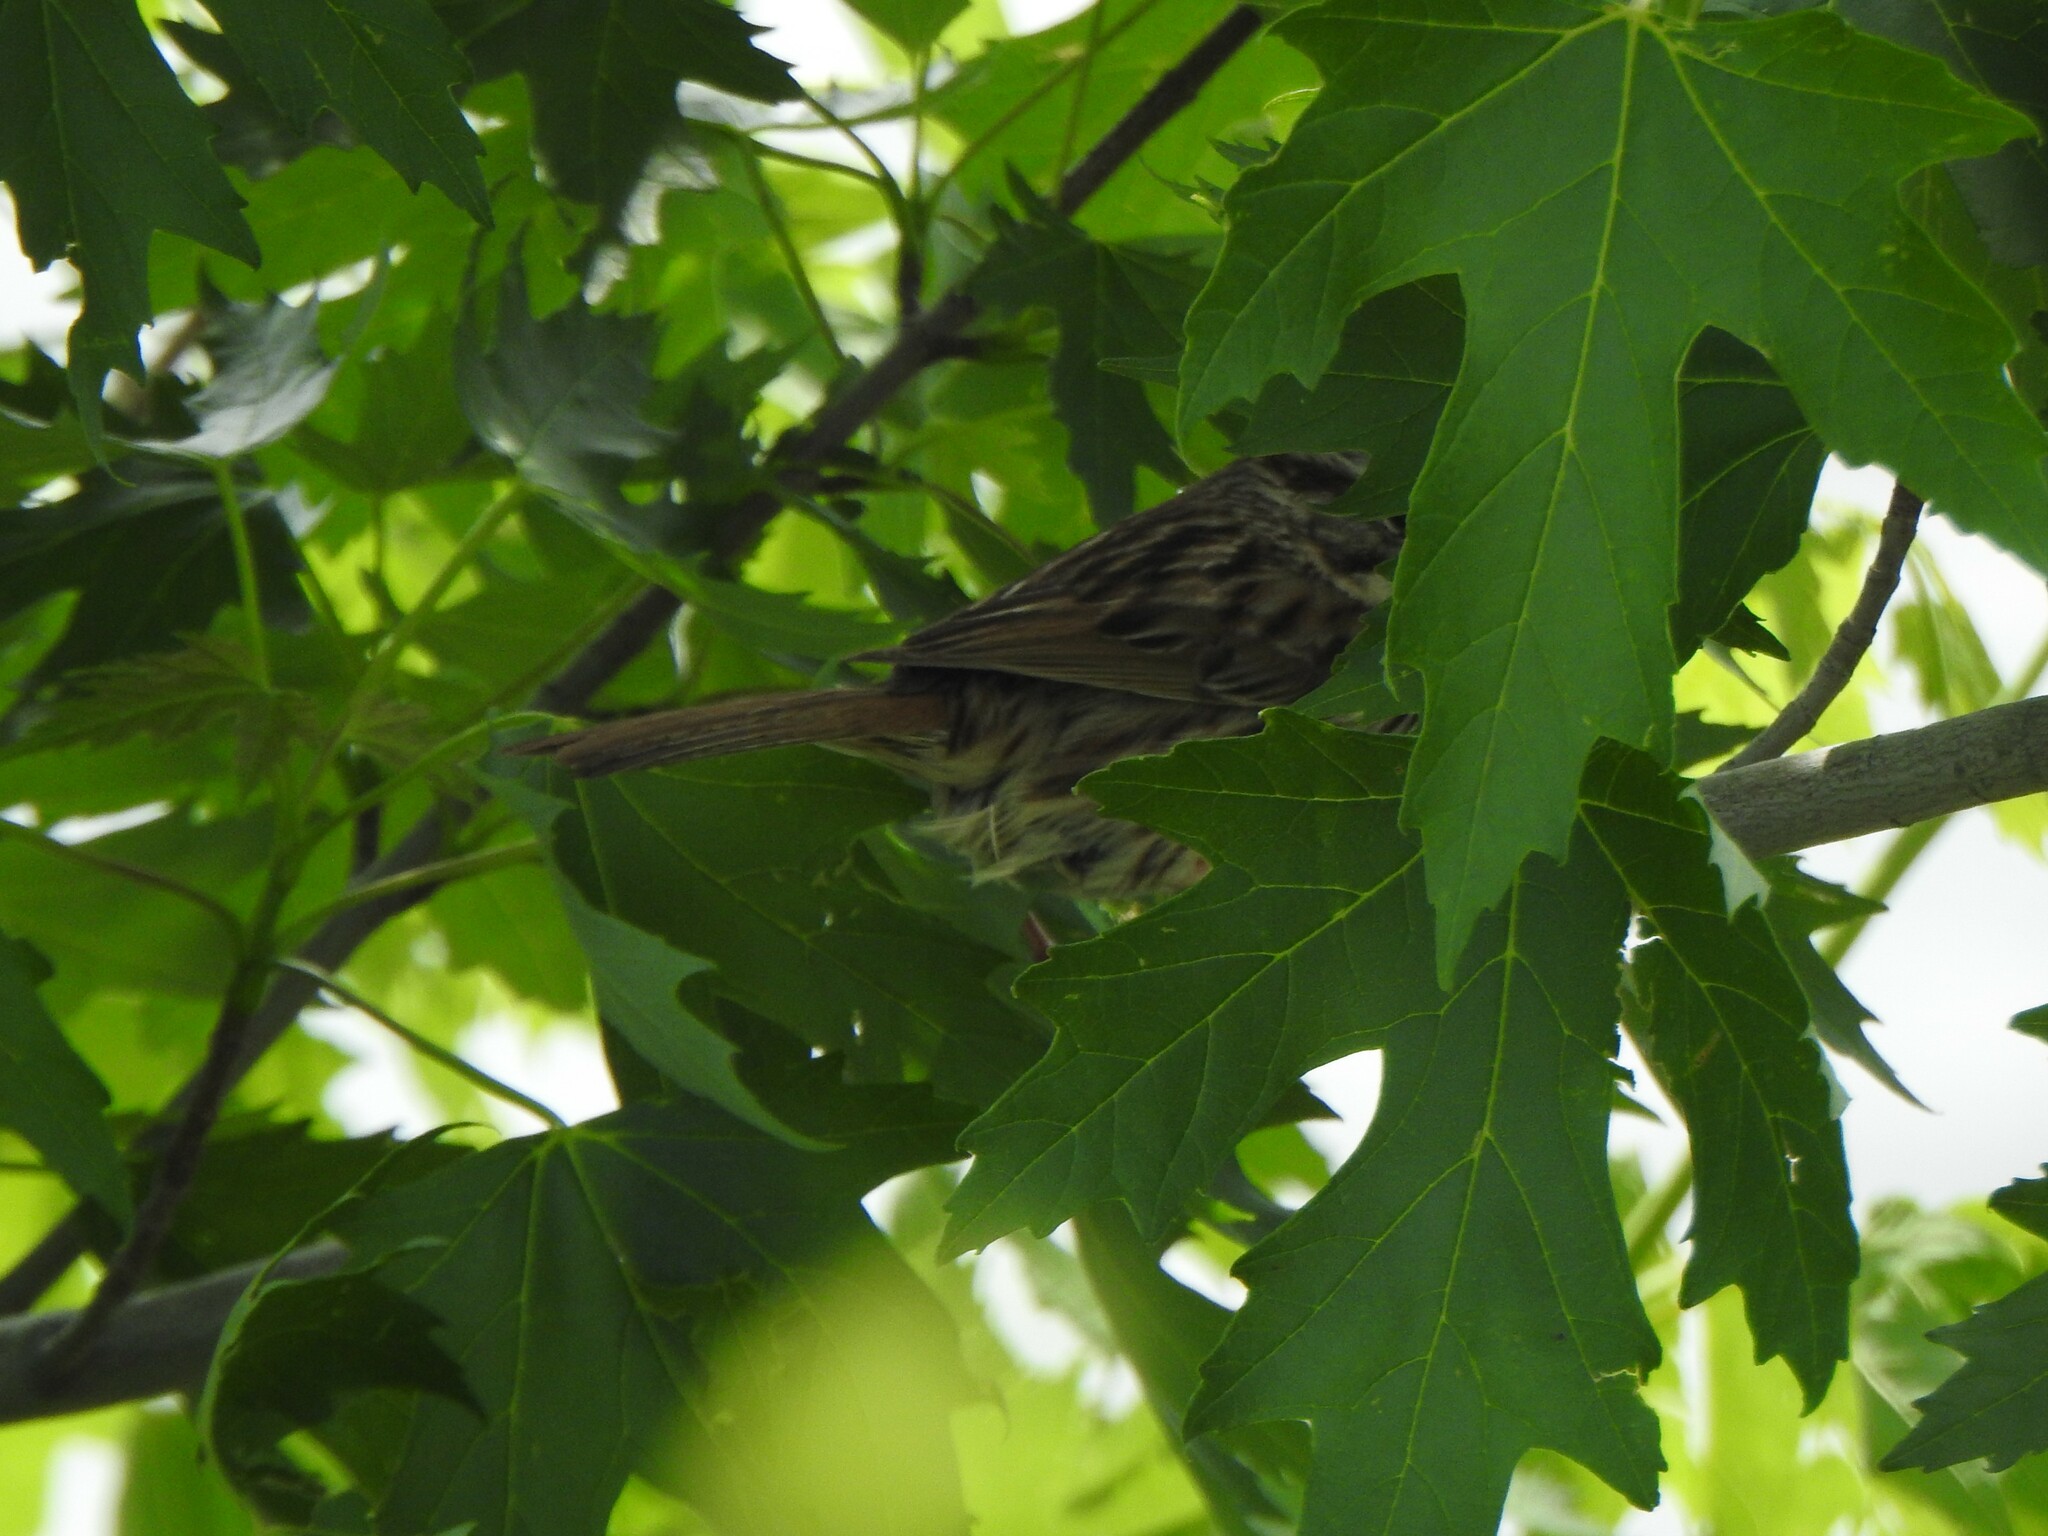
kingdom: Animalia
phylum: Chordata
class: Aves
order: Passeriformes
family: Passerellidae
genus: Melospiza
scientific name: Melospiza melodia
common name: Song sparrow
